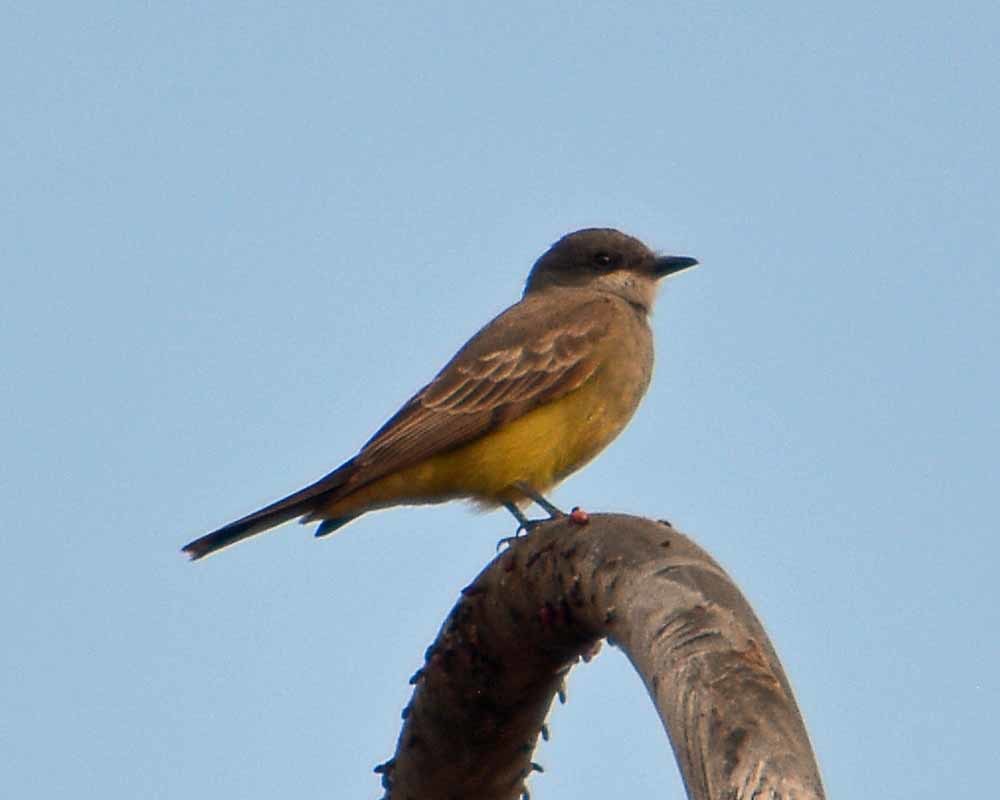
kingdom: Animalia
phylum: Chordata
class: Aves
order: Passeriformes
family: Tyrannidae
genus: Tyrannus
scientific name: Tyrannus vociferans
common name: Cassin's kingbird
